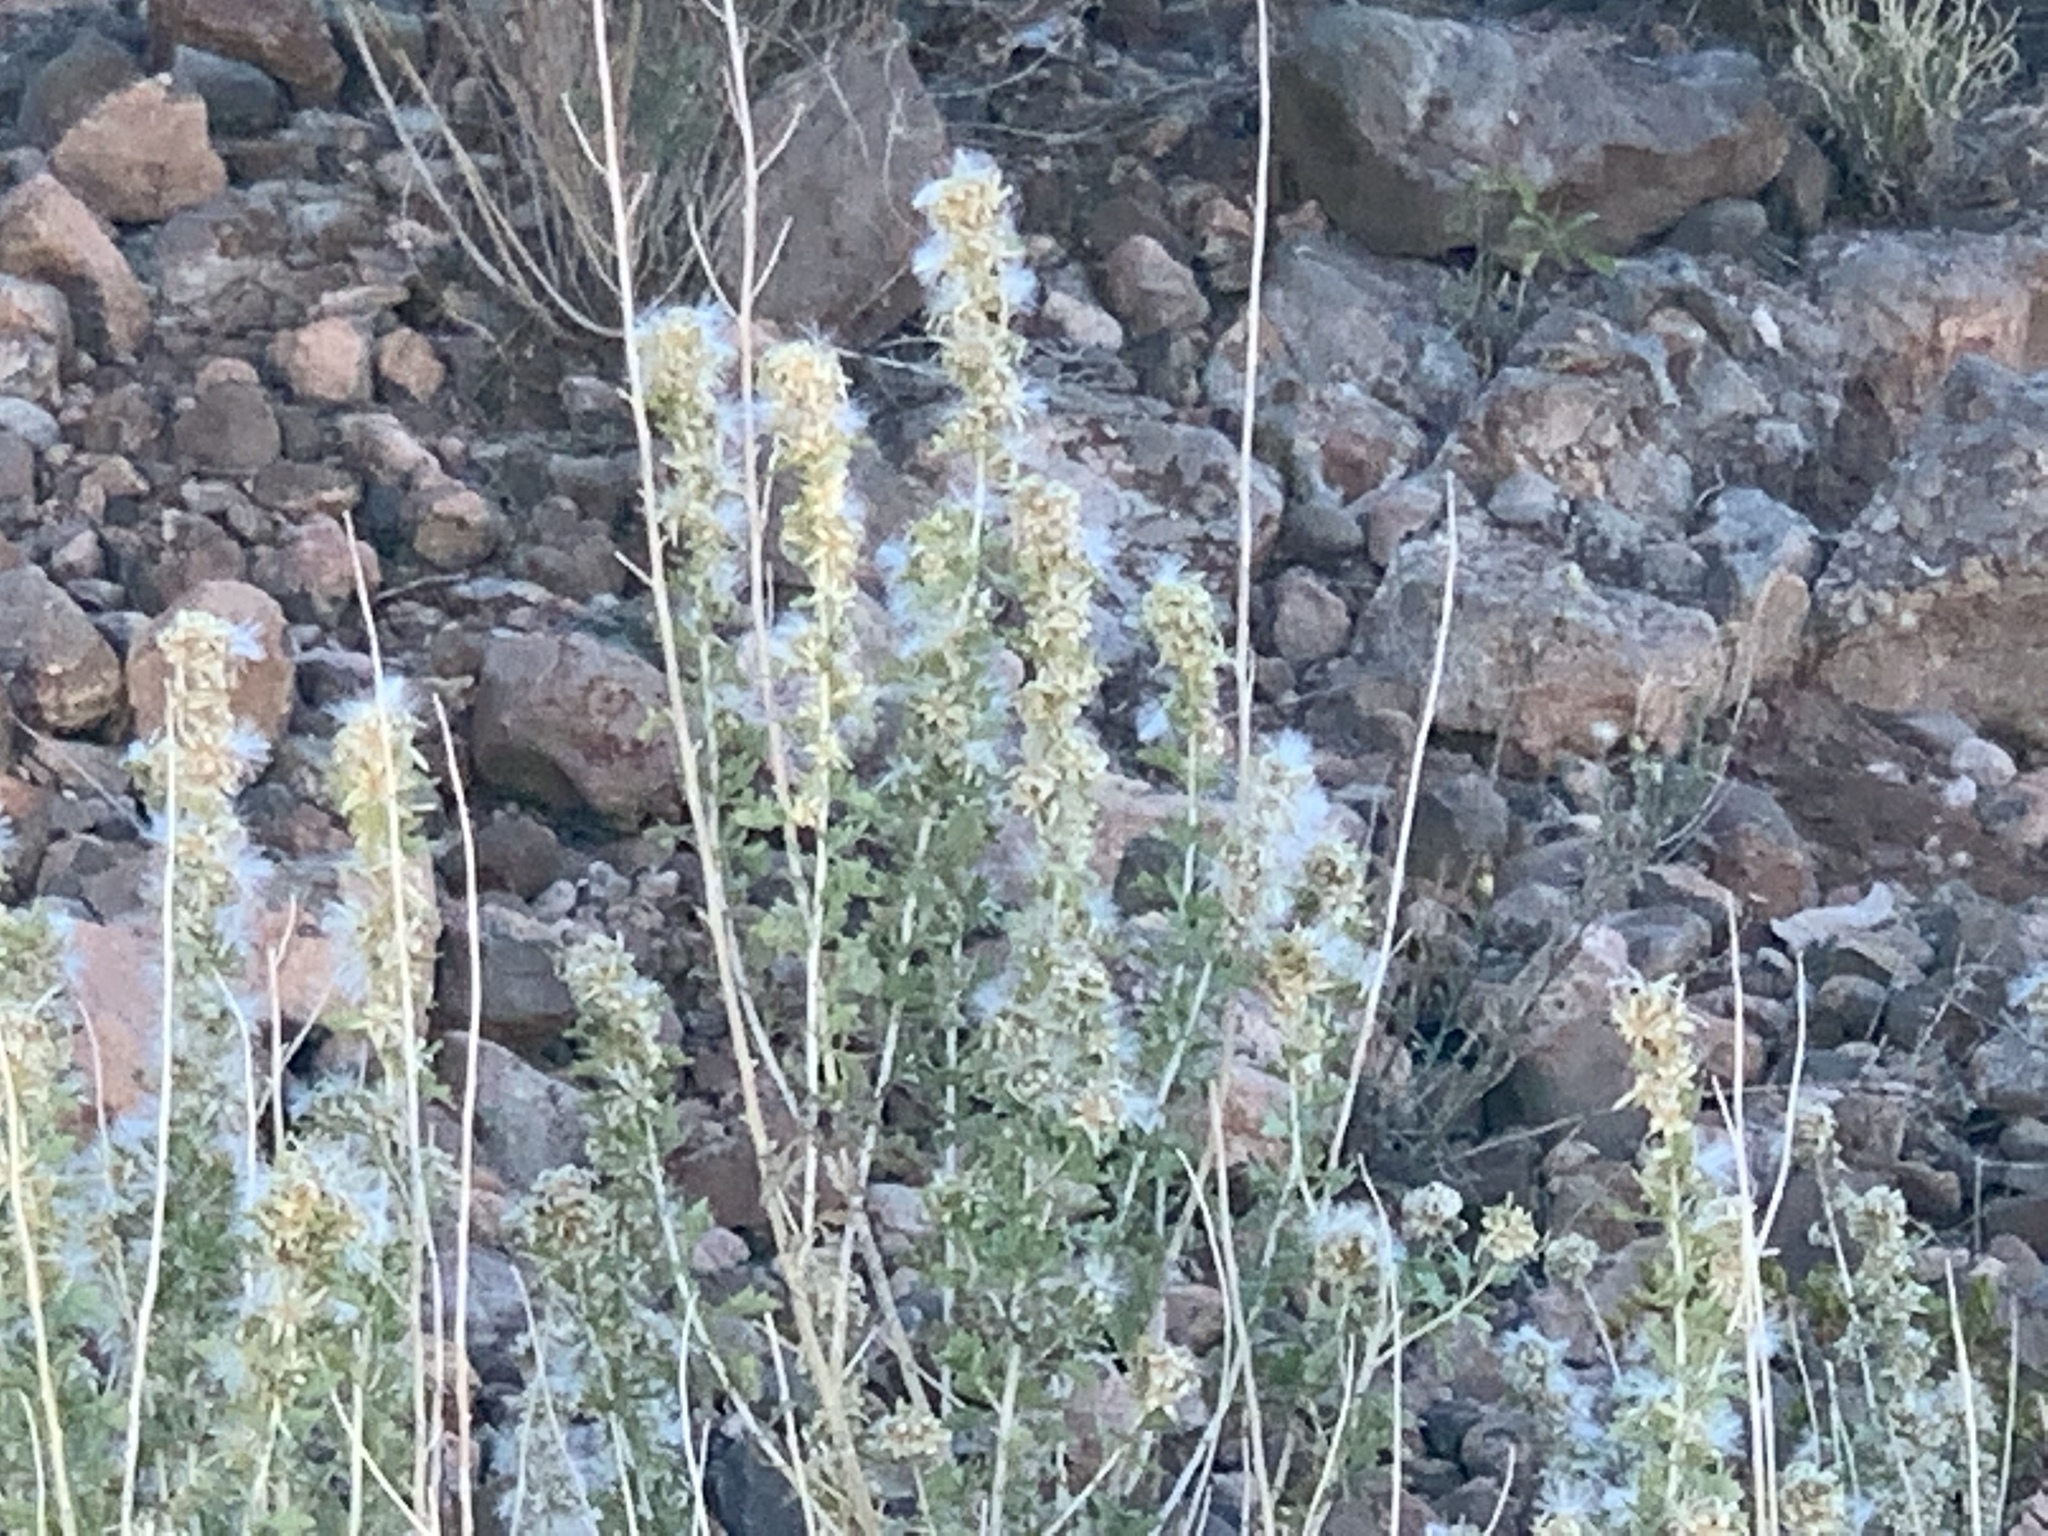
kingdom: Plantae
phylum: Tracheophyta
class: Magnoliopsida
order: Caryophyllales
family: Amaranthaceae
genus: Krascheninnikovia
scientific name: Krascheninnikovia lanata
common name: Winterfat
